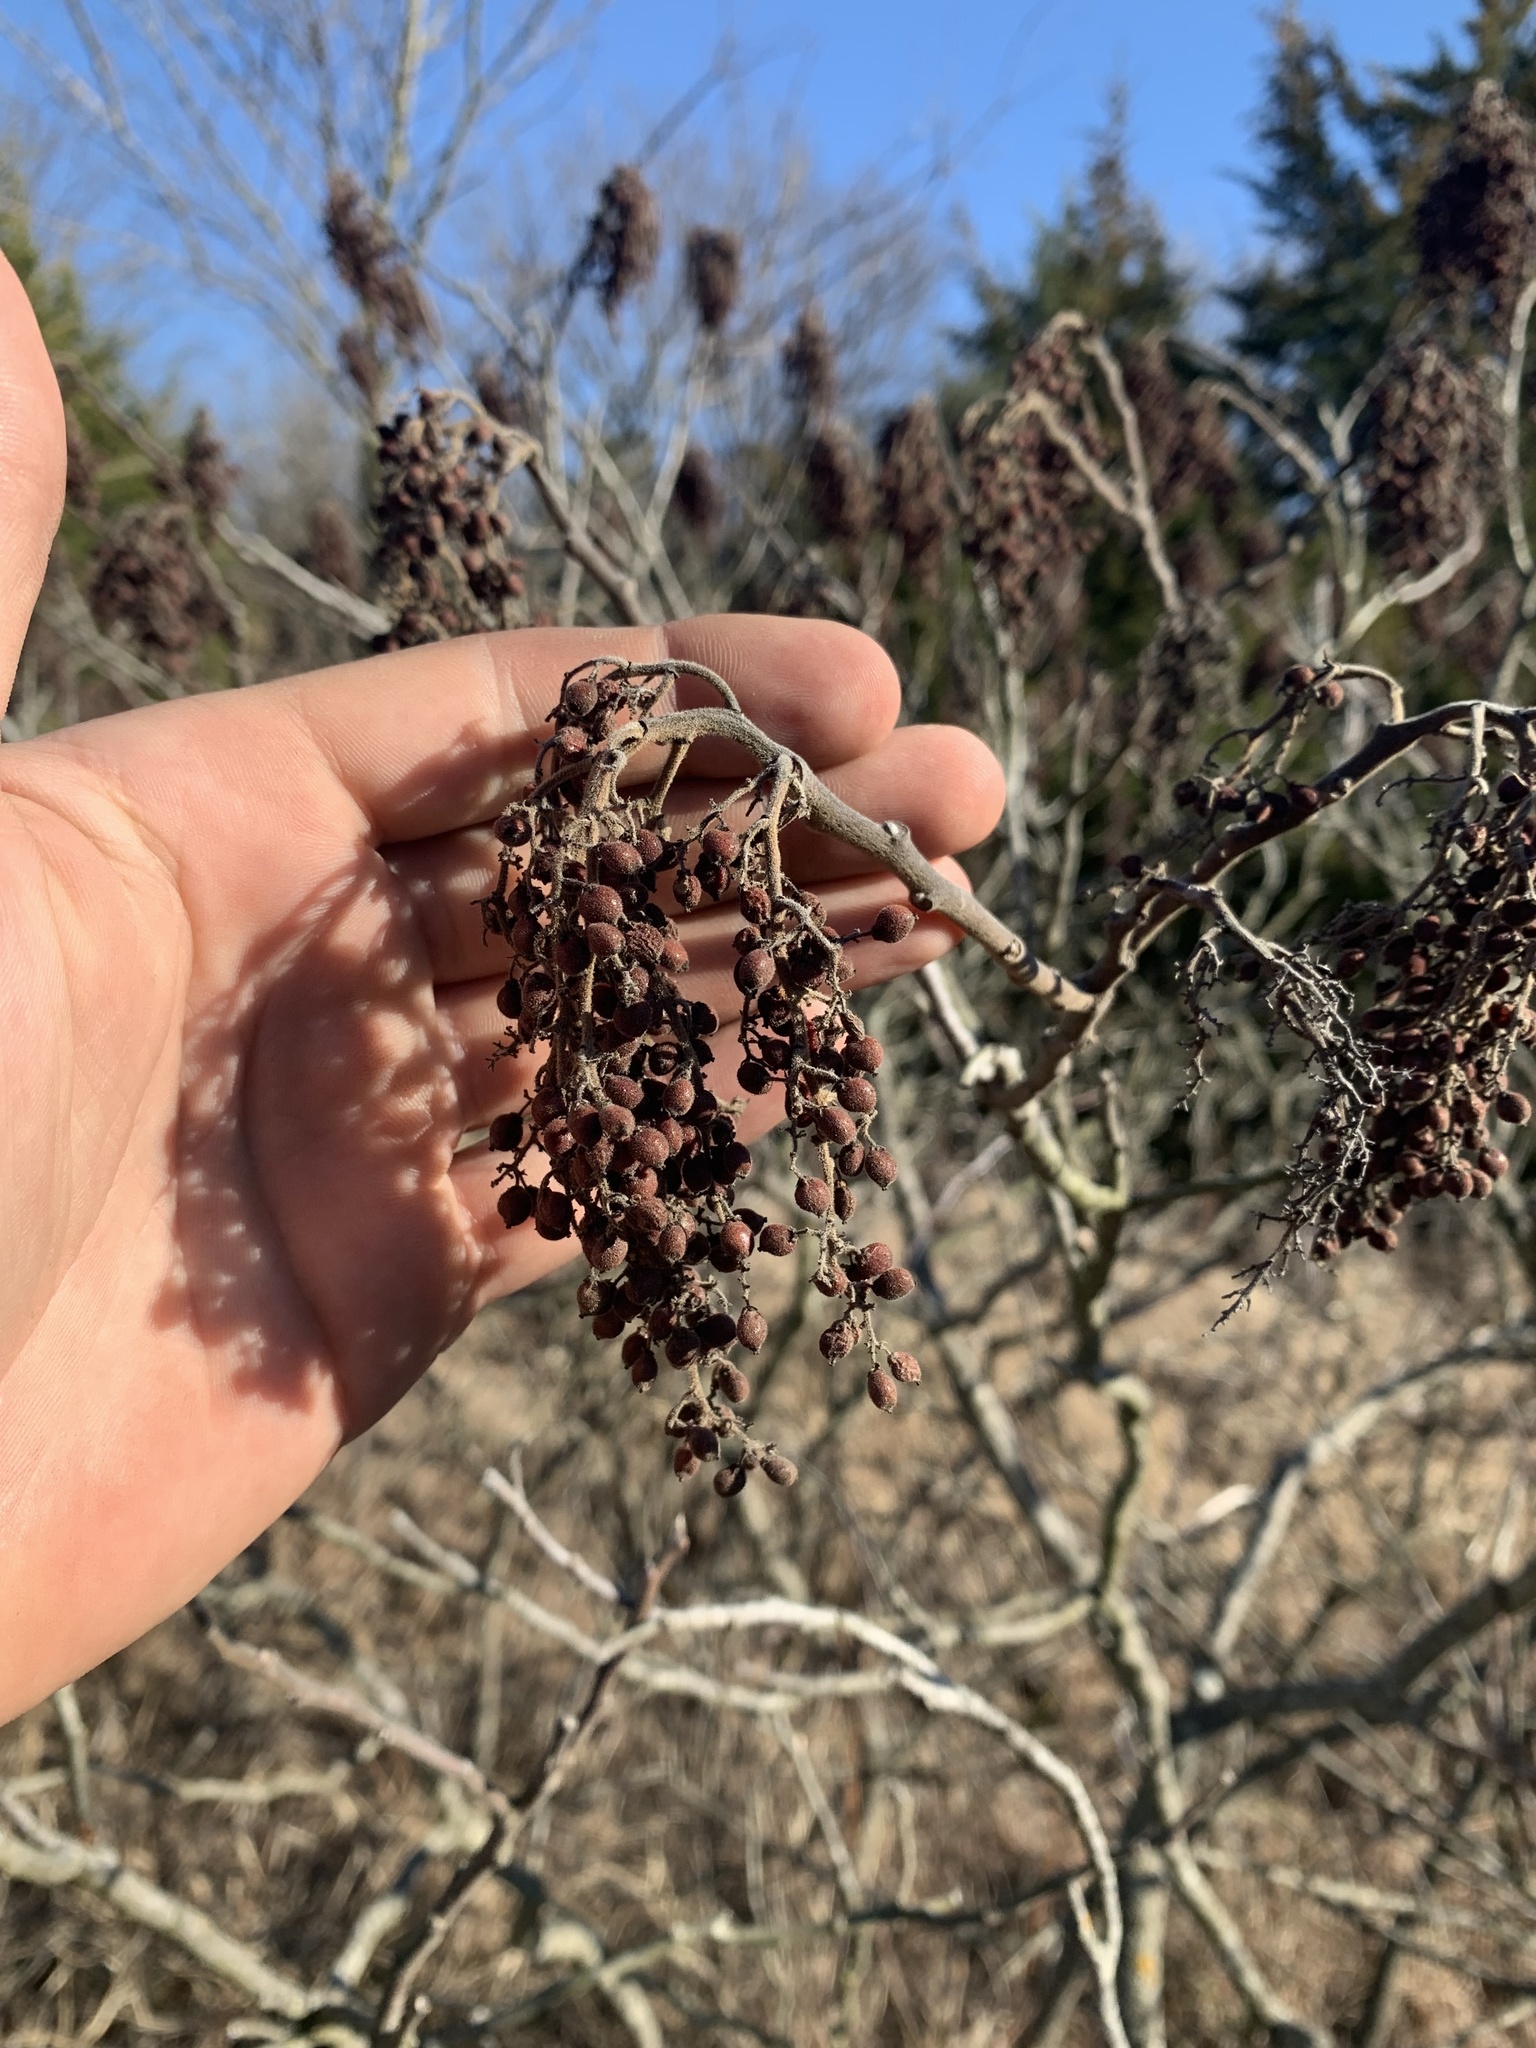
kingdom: Plantae
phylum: Tracheophyta
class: Magnoliopsida
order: Sapindales
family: Anacardiaceae
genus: Rhus
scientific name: Rhus copallina
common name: Shining sumac
